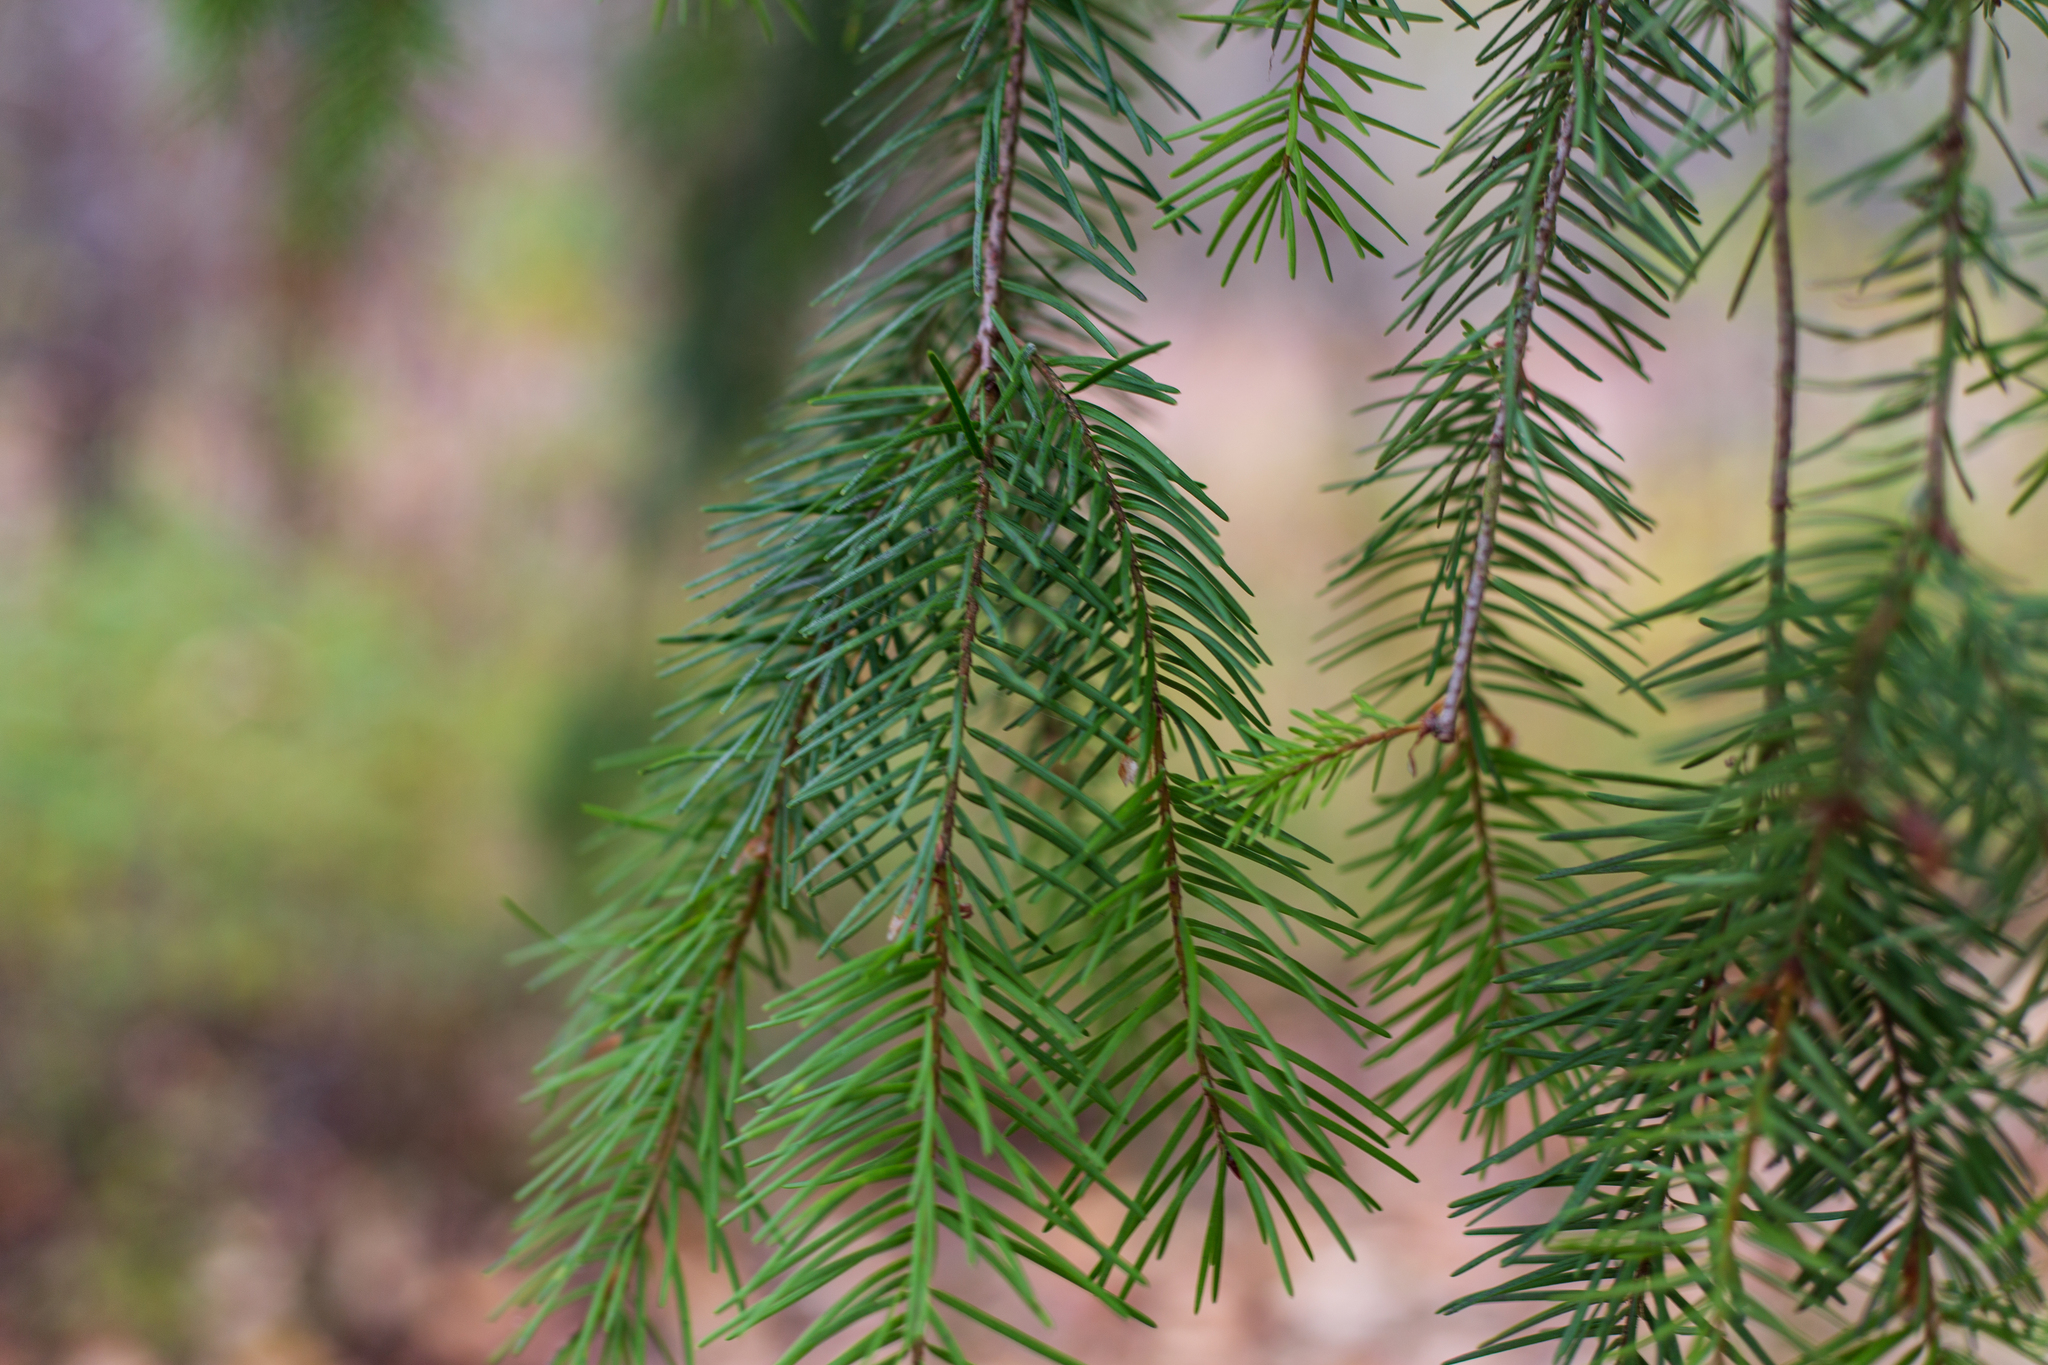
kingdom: Plantae
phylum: Tracheophyta
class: Pinopsida
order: Pinales
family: Pinaceae
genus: Pseudotsuga
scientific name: Pseudotsuga menziesii
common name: Douglas fir
